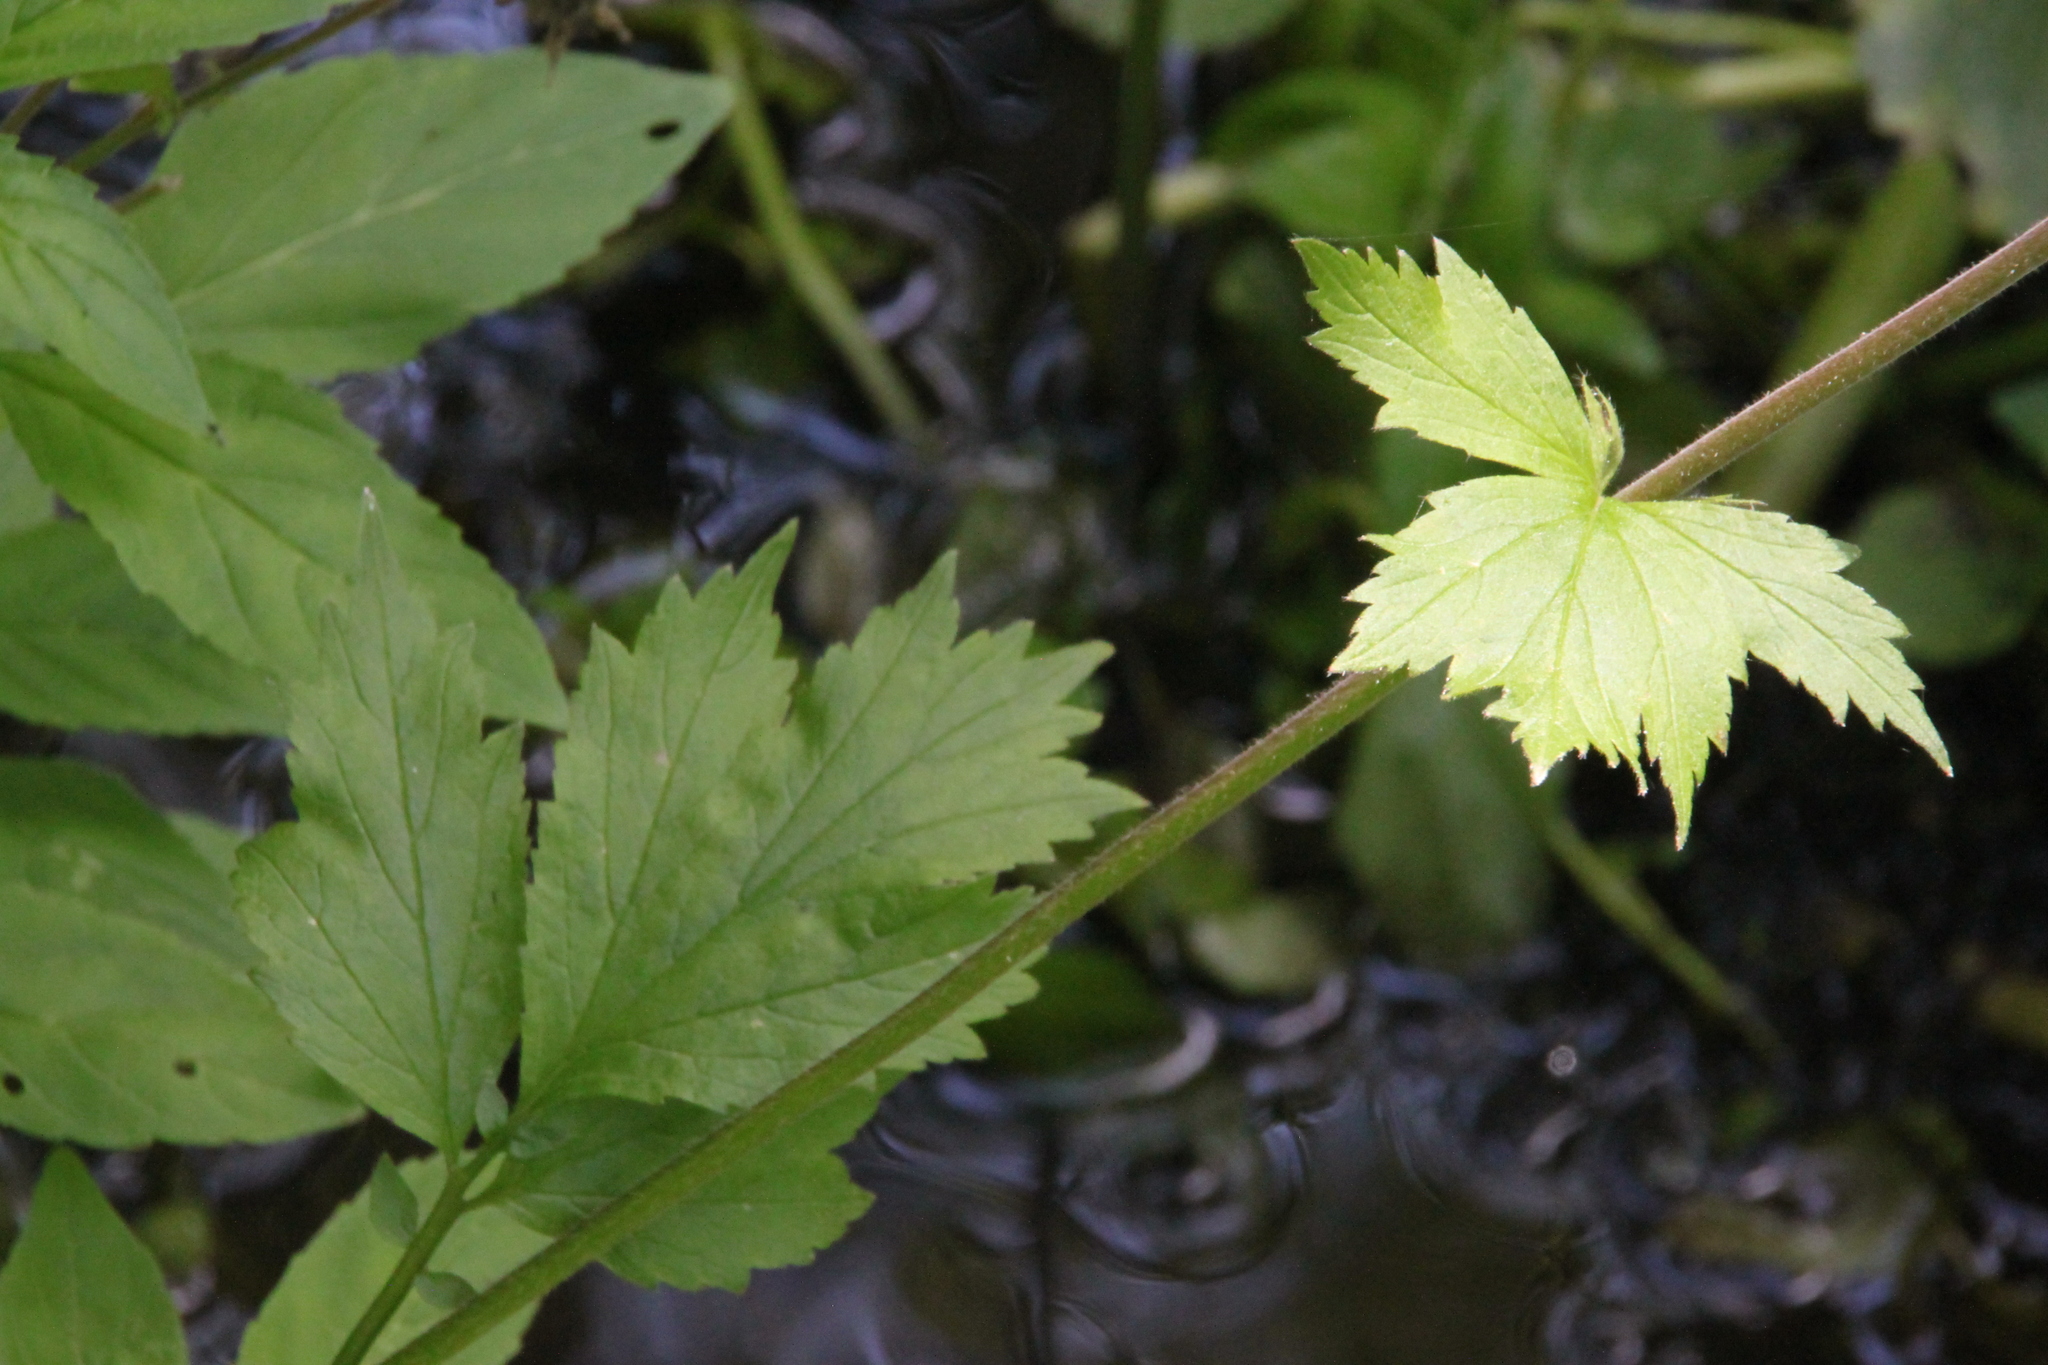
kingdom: Plantae
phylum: Tracheophyta
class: Magnoliopsida
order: Rosales
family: Rosaceae
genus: Geum
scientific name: Geum rivale
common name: Water avens
